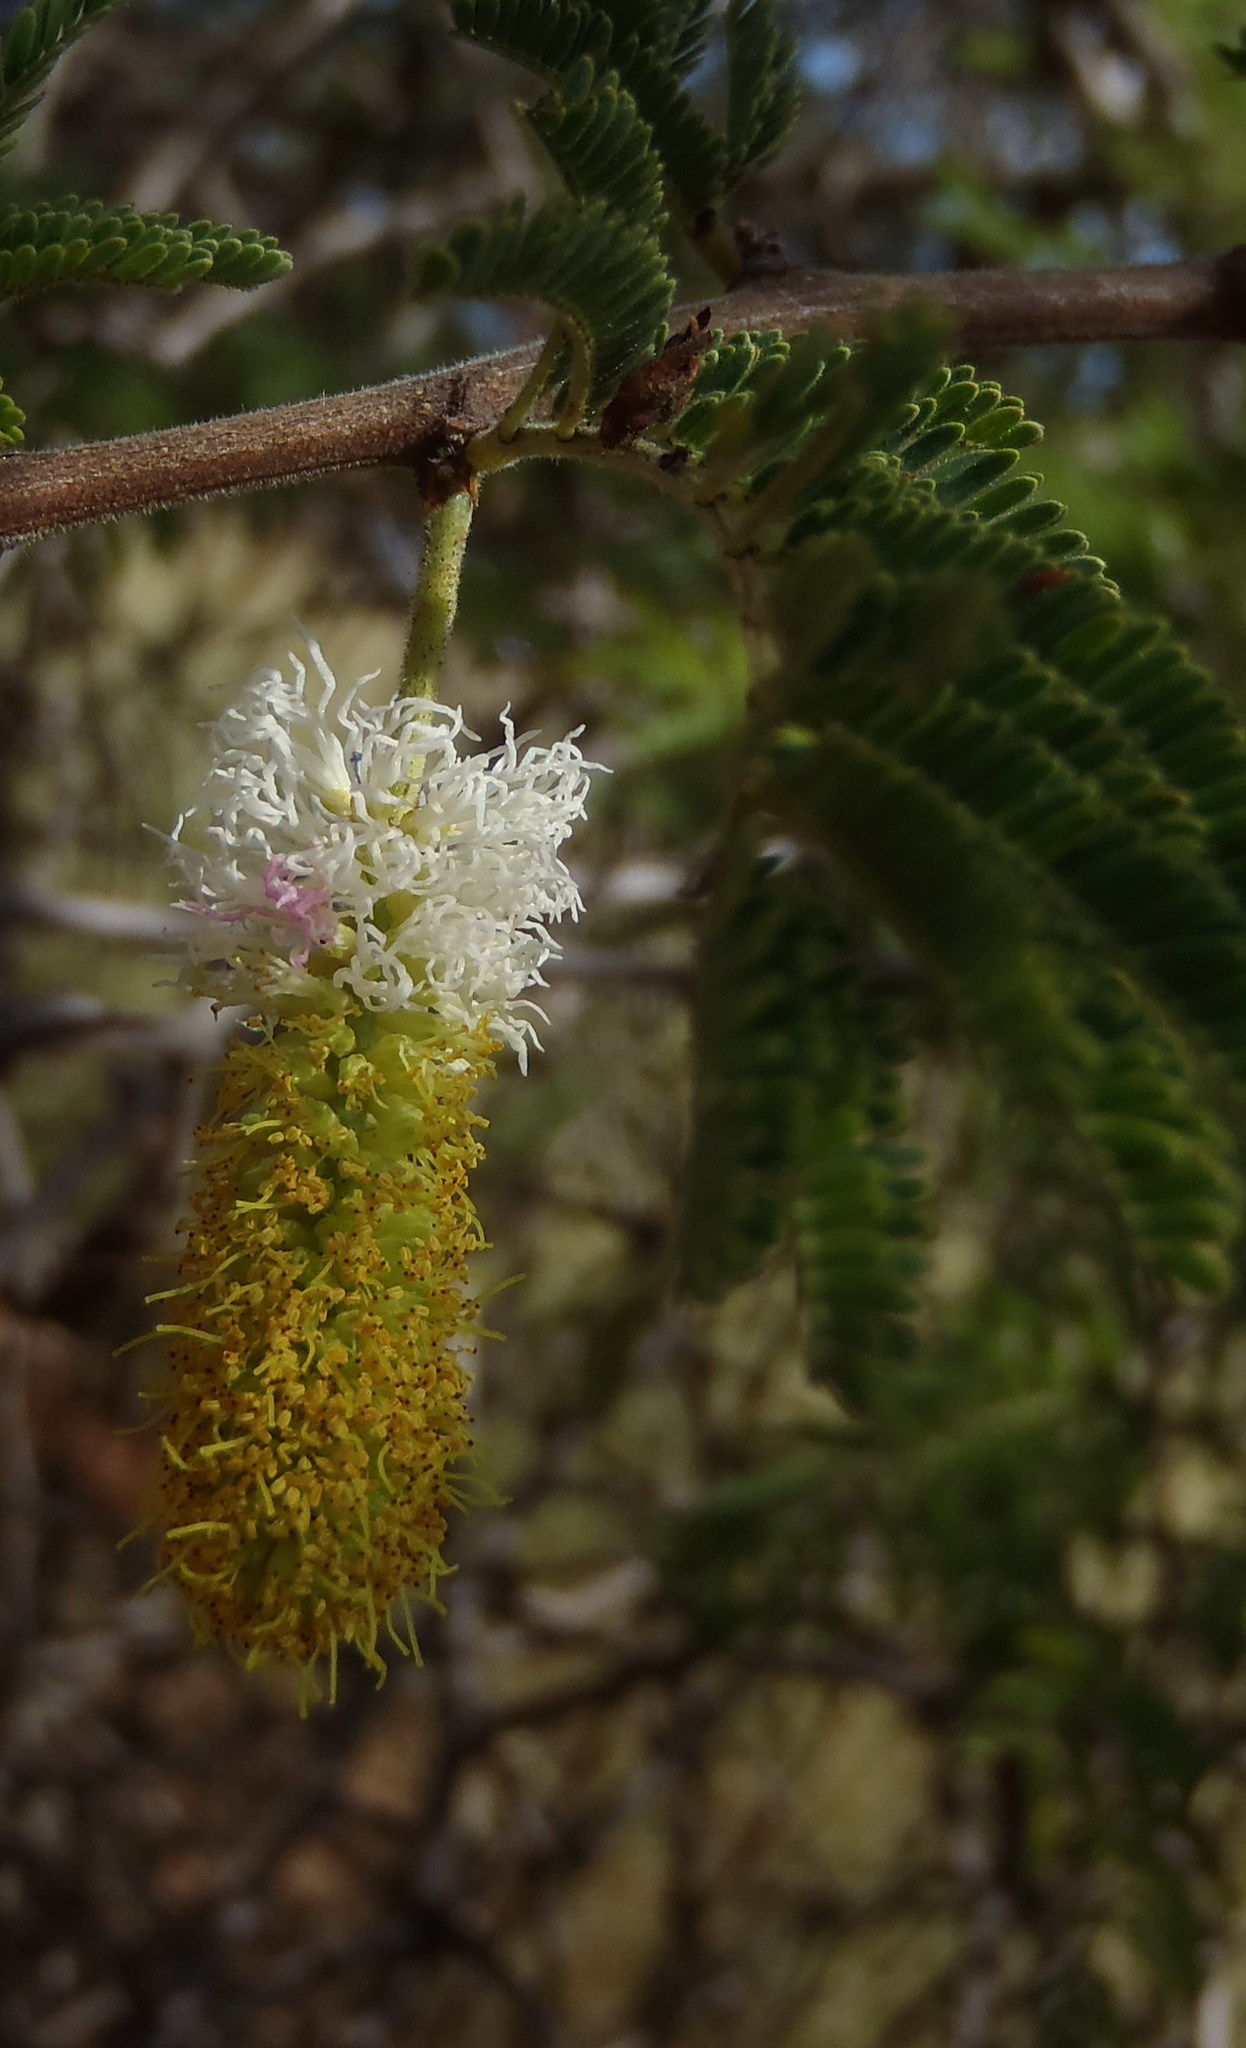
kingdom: Plantae
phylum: Tracheophyta
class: Magnoliopsida
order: Fabales
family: Fabaceae
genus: Dichrostachys
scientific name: Dichrostachys cinerea
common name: Sicklebush
